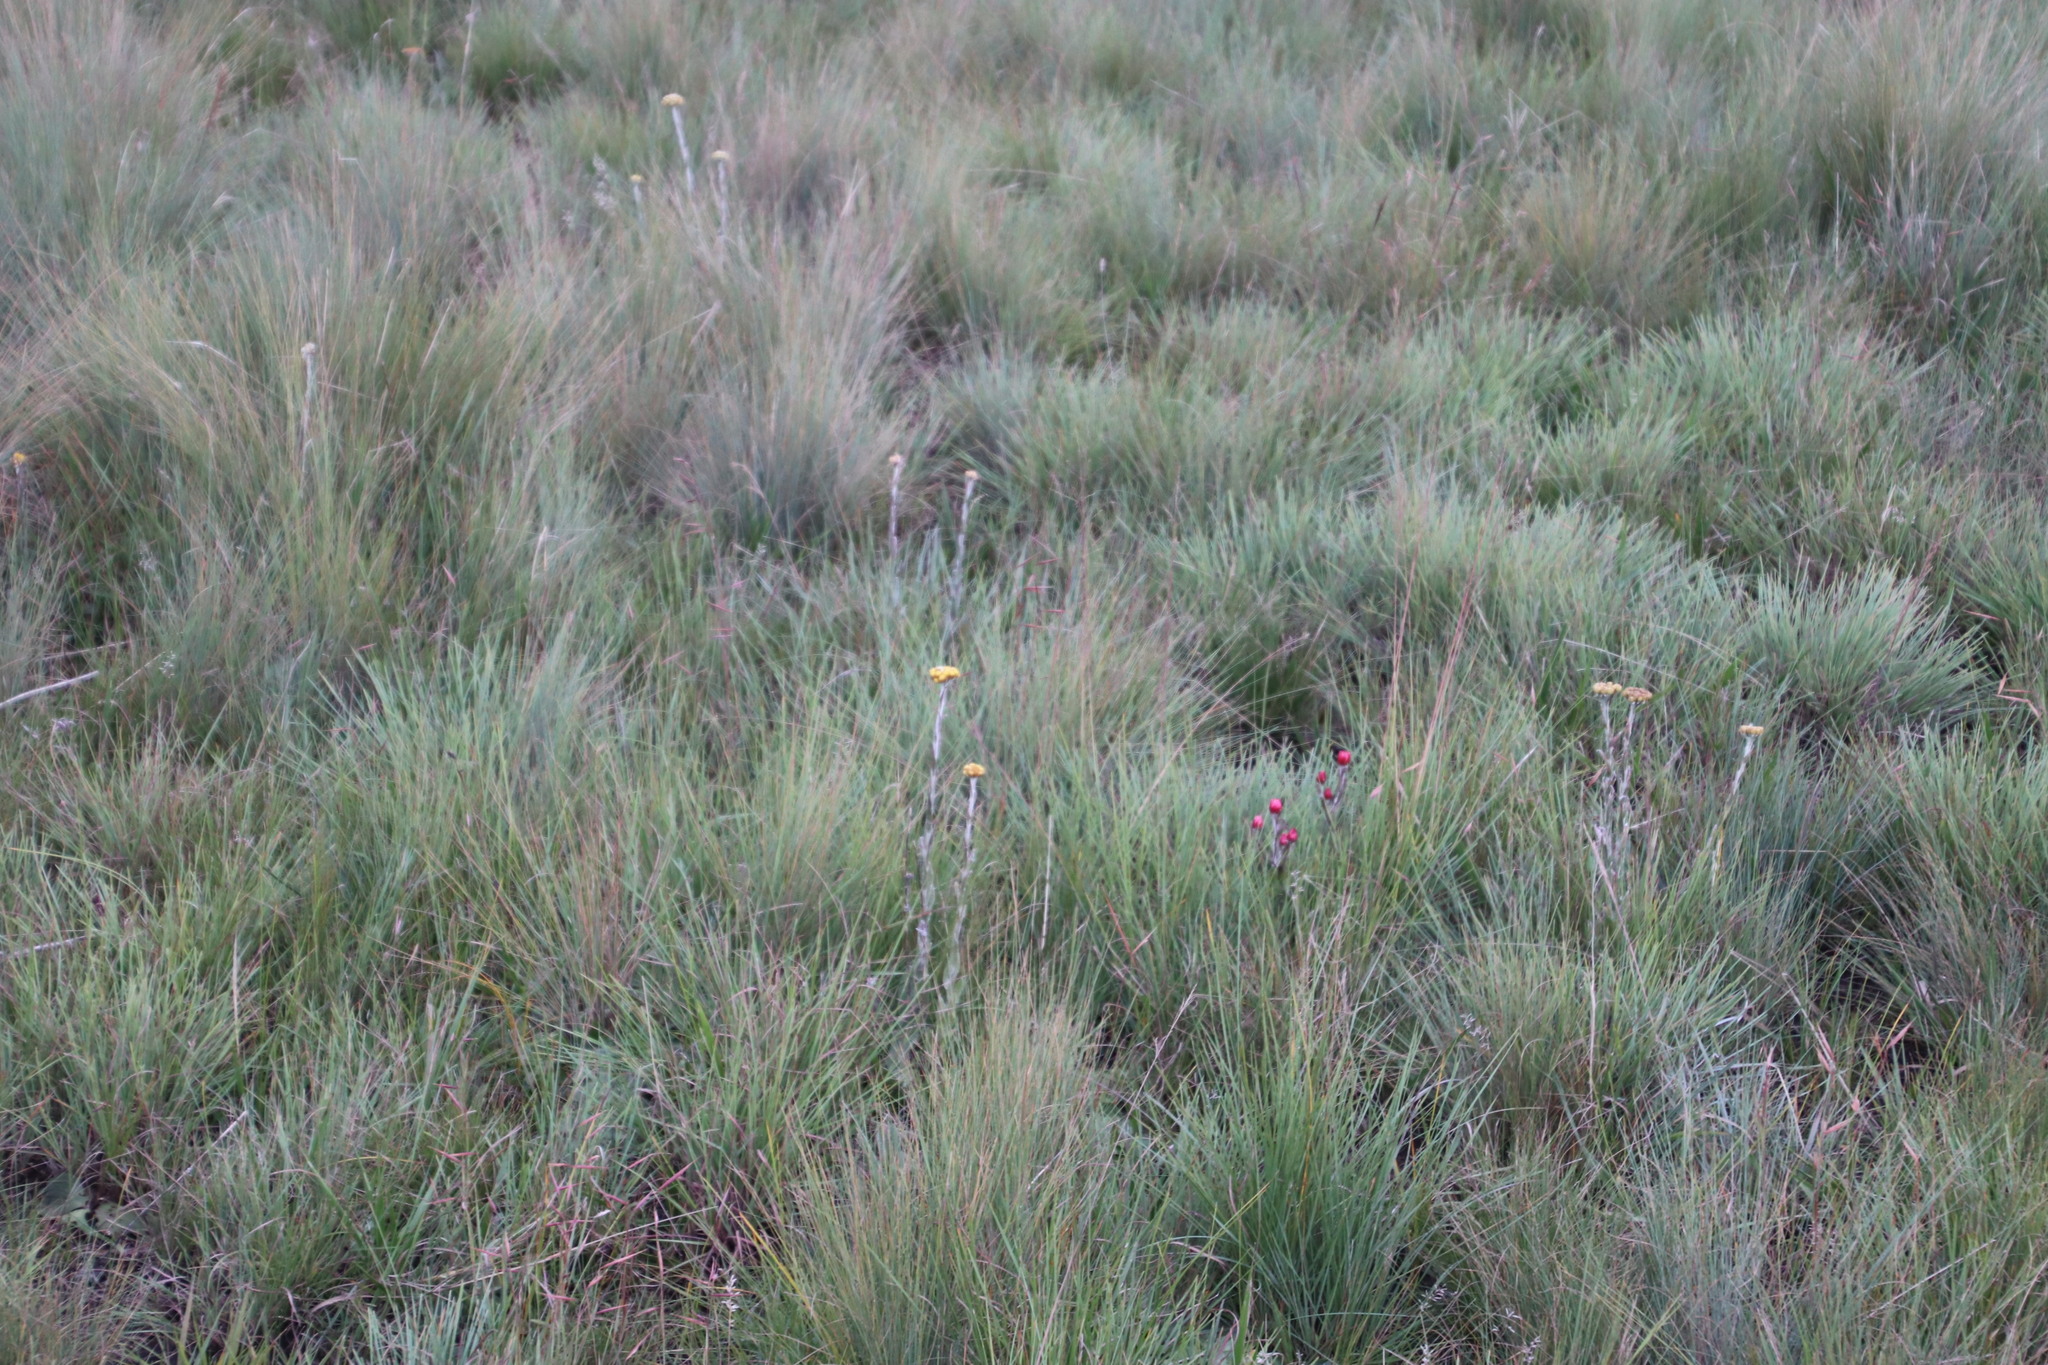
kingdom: Plantae
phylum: Tracheophyta
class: Magnoliopsida
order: Asterales
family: Asteraceae
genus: Helichrysum
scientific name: Helichrysum auriceps
